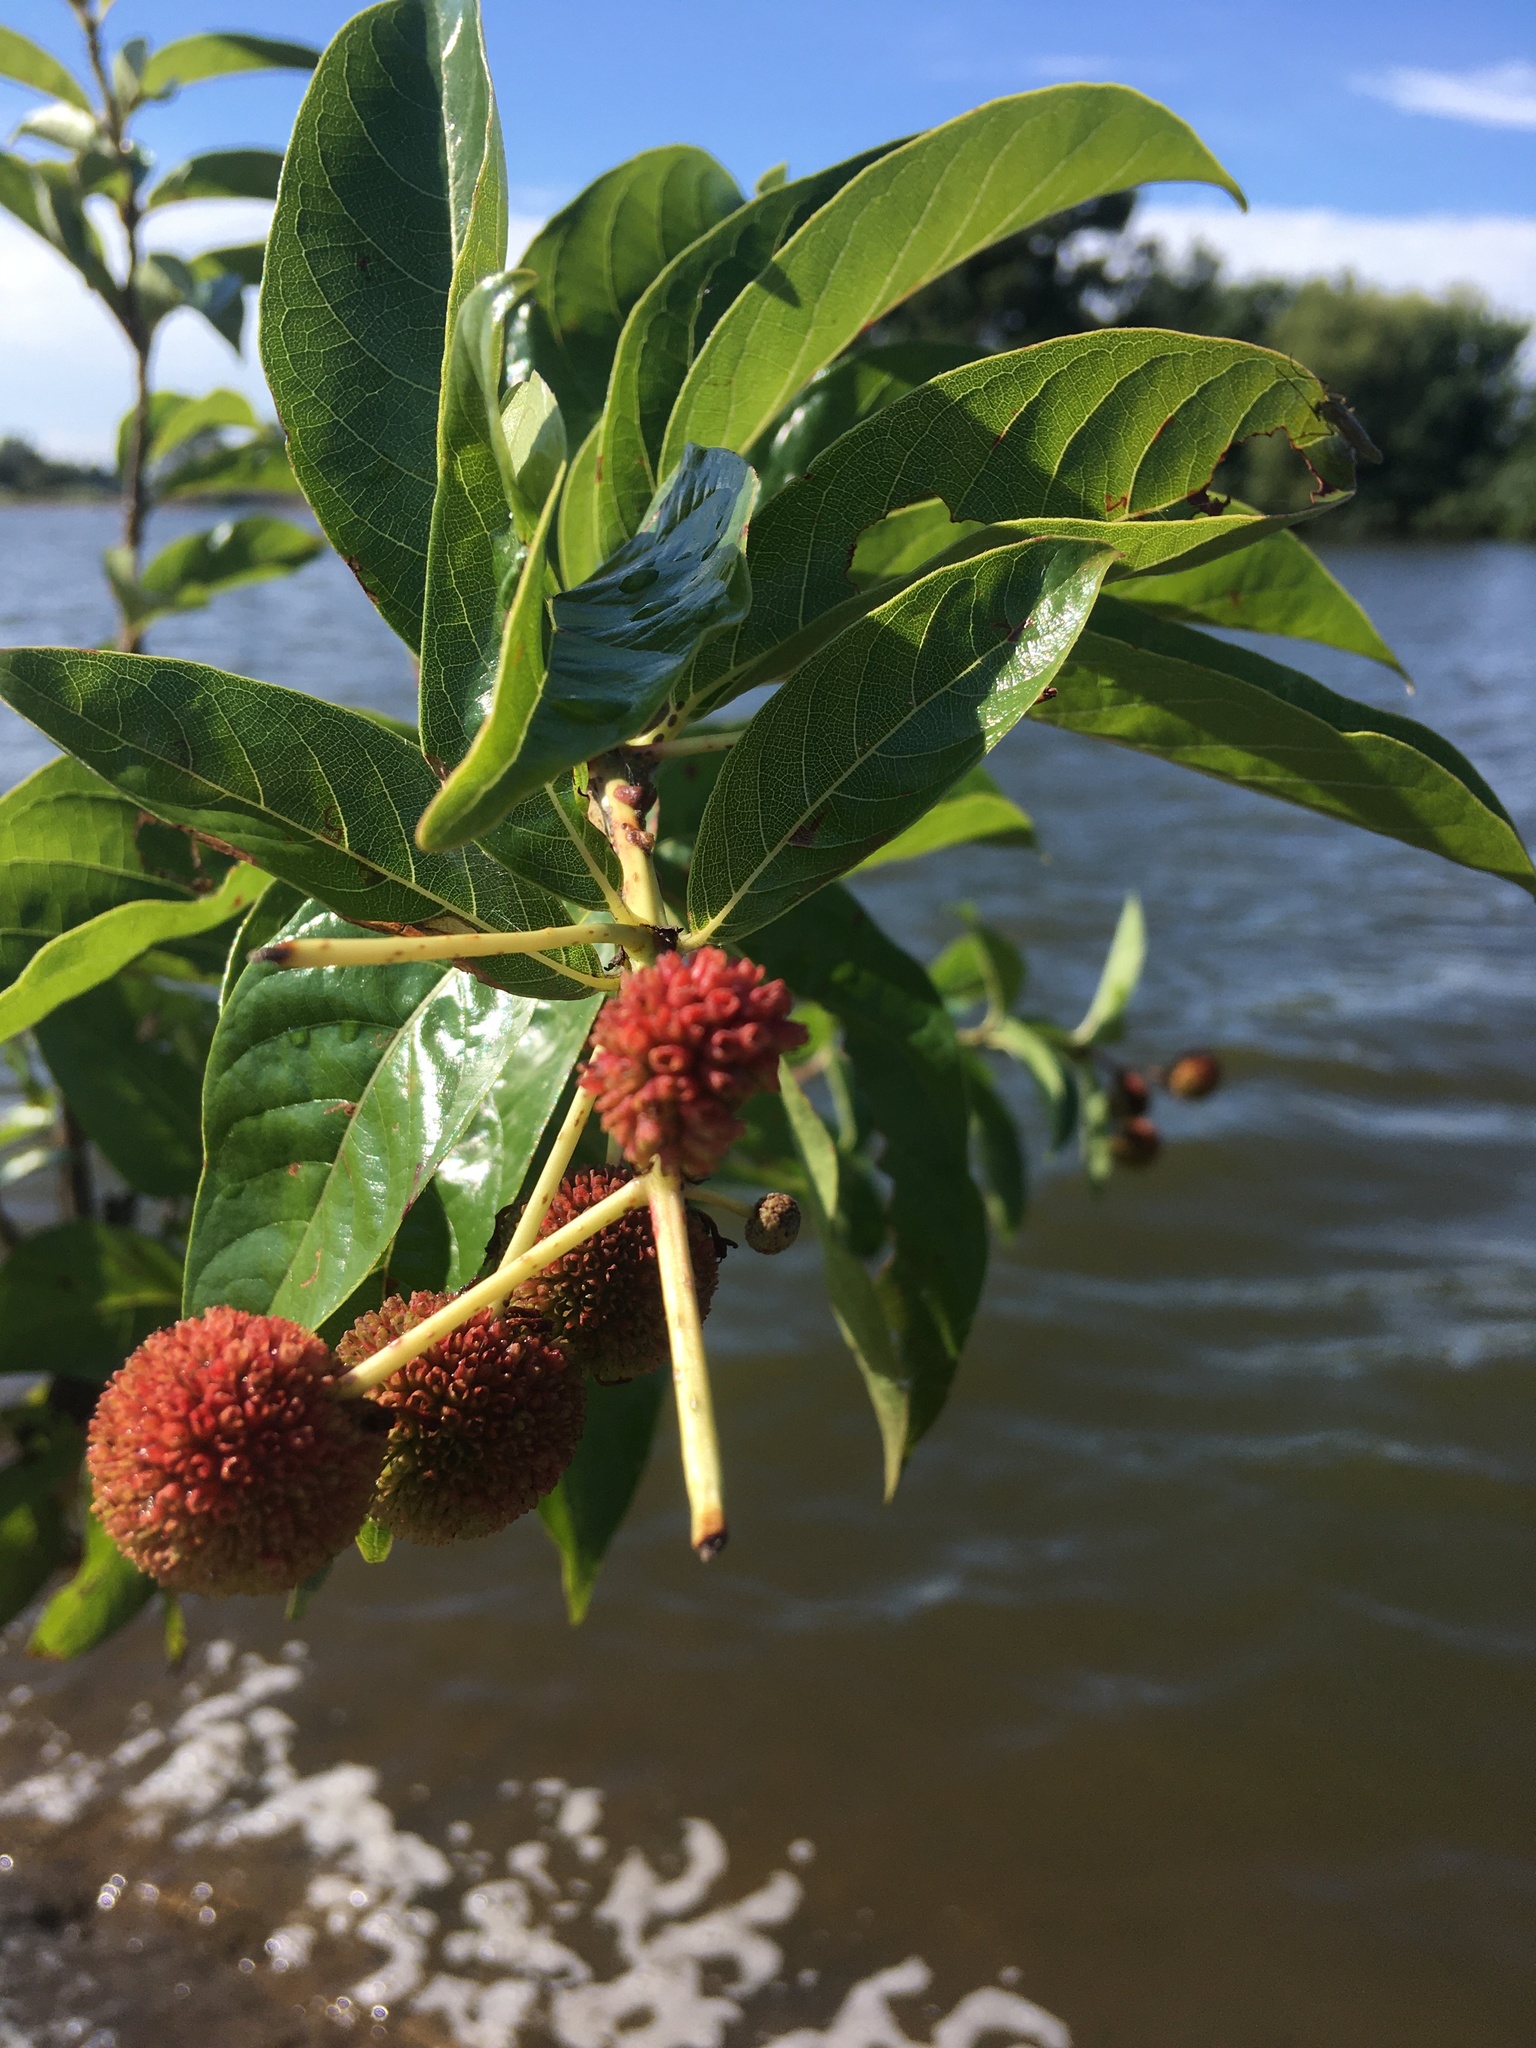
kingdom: Plantae
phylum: Tracheophyta
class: Magnoliopsida
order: Gentianales
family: Rubiaceae
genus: Cephalanthus
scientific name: Cephalanthus occidentalis
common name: Button-willow
